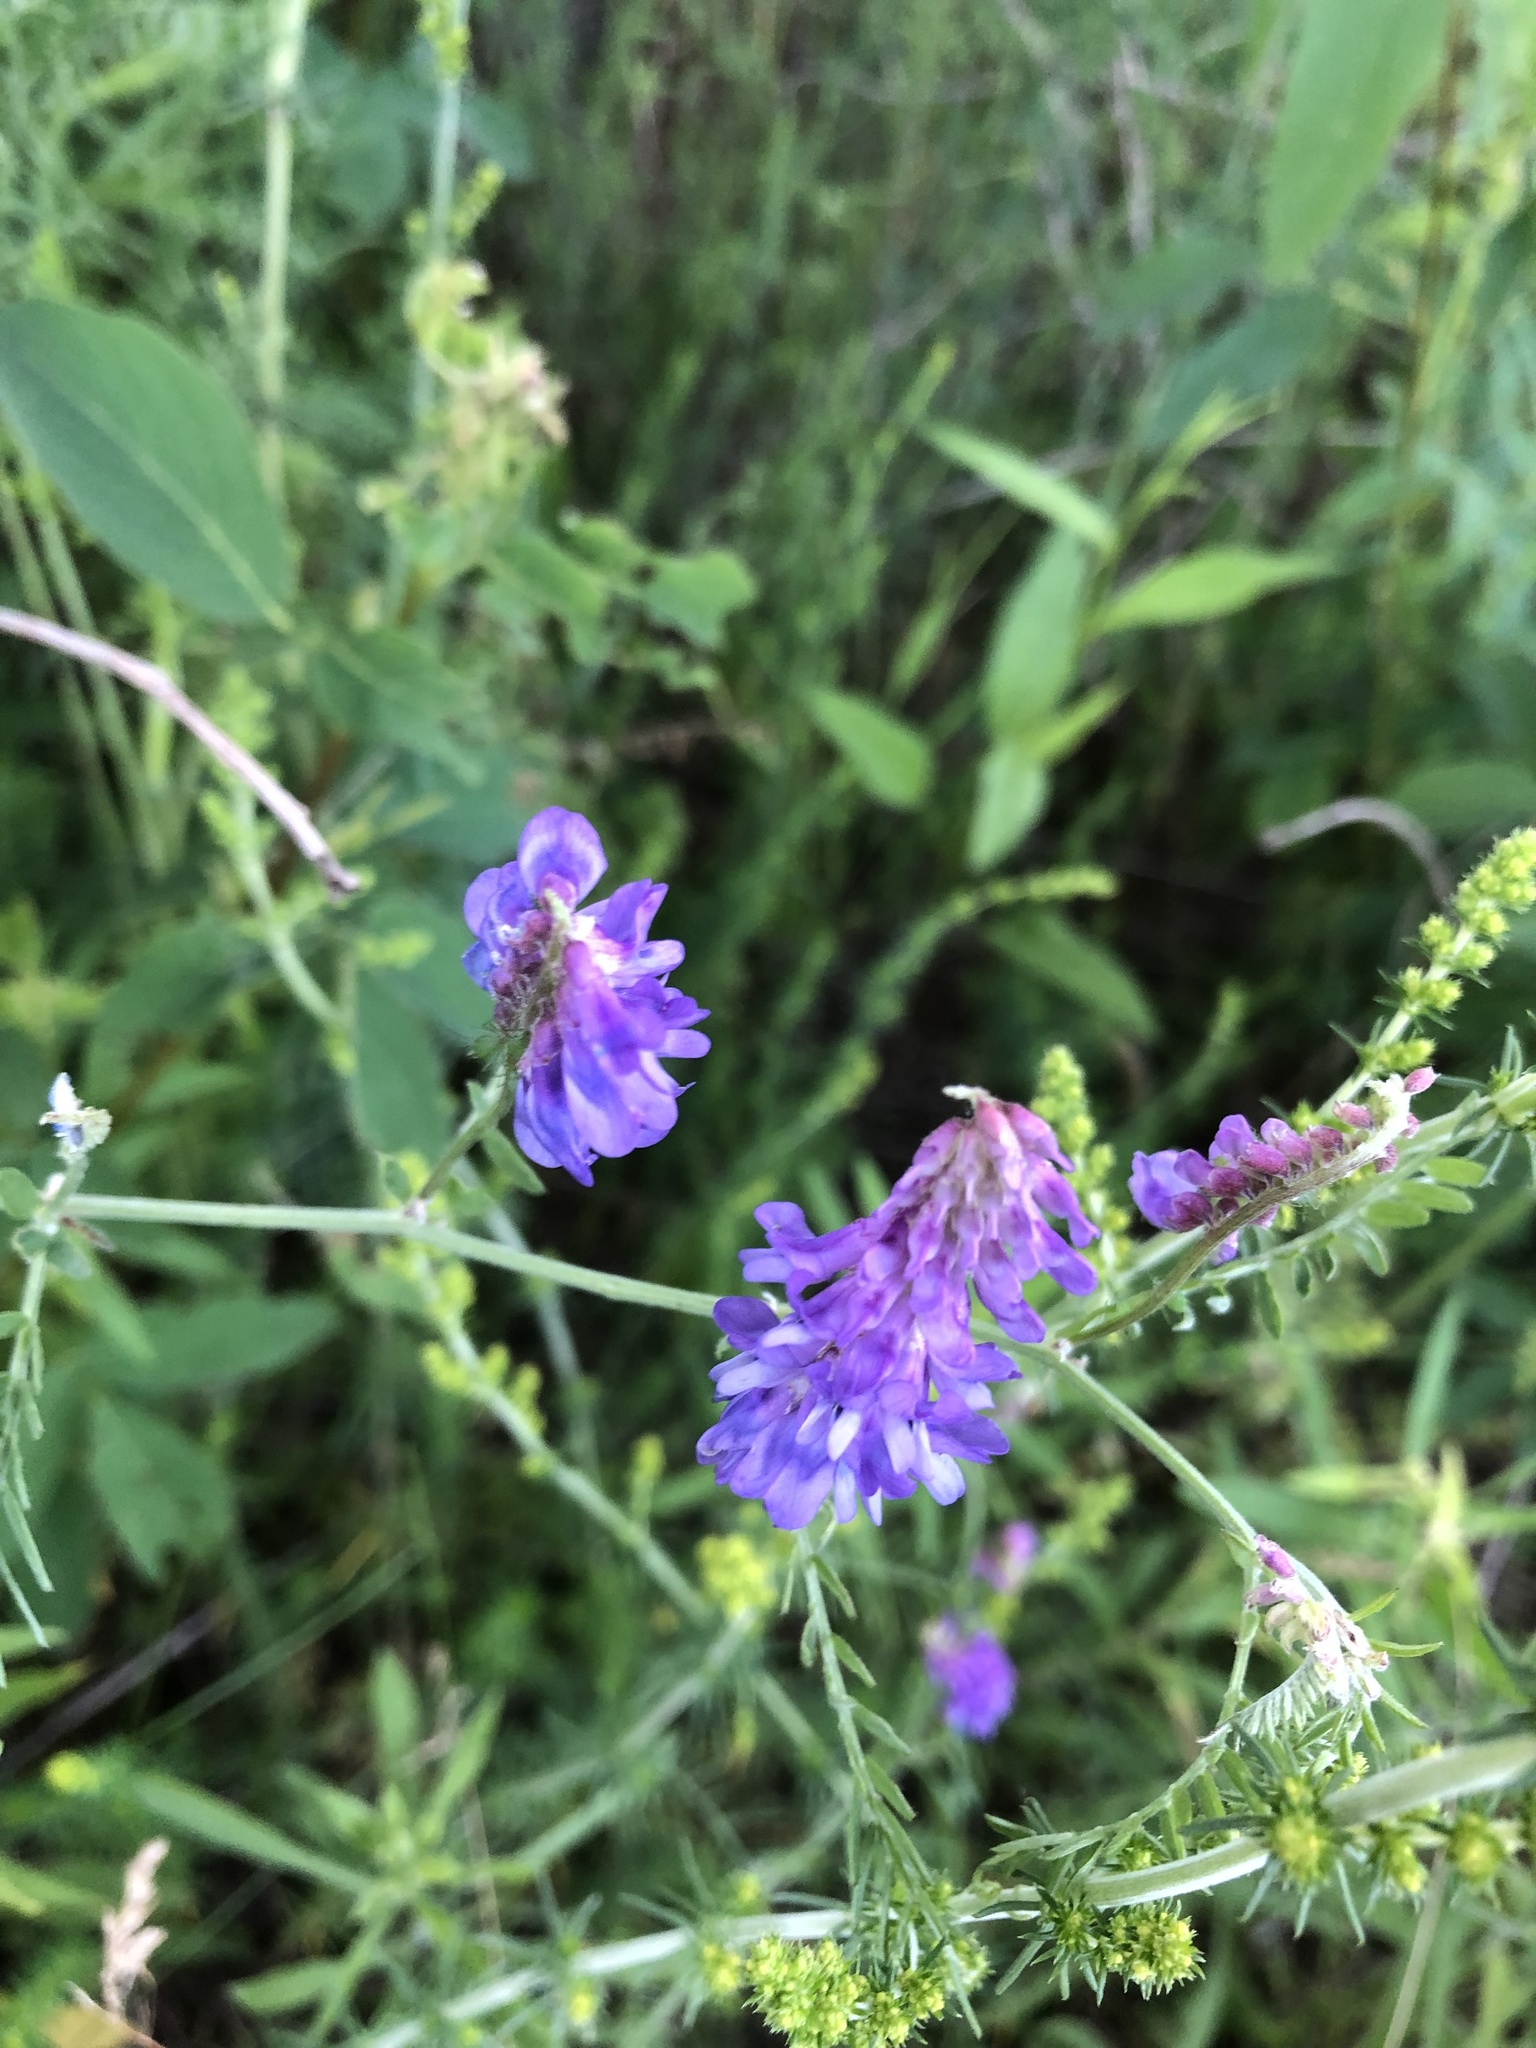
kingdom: Plantae
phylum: Tracheophyta
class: Magnoliopsida
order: Fabales
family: Fabaceae
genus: Vicia
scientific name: Vicia cracca
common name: Bird vetch
